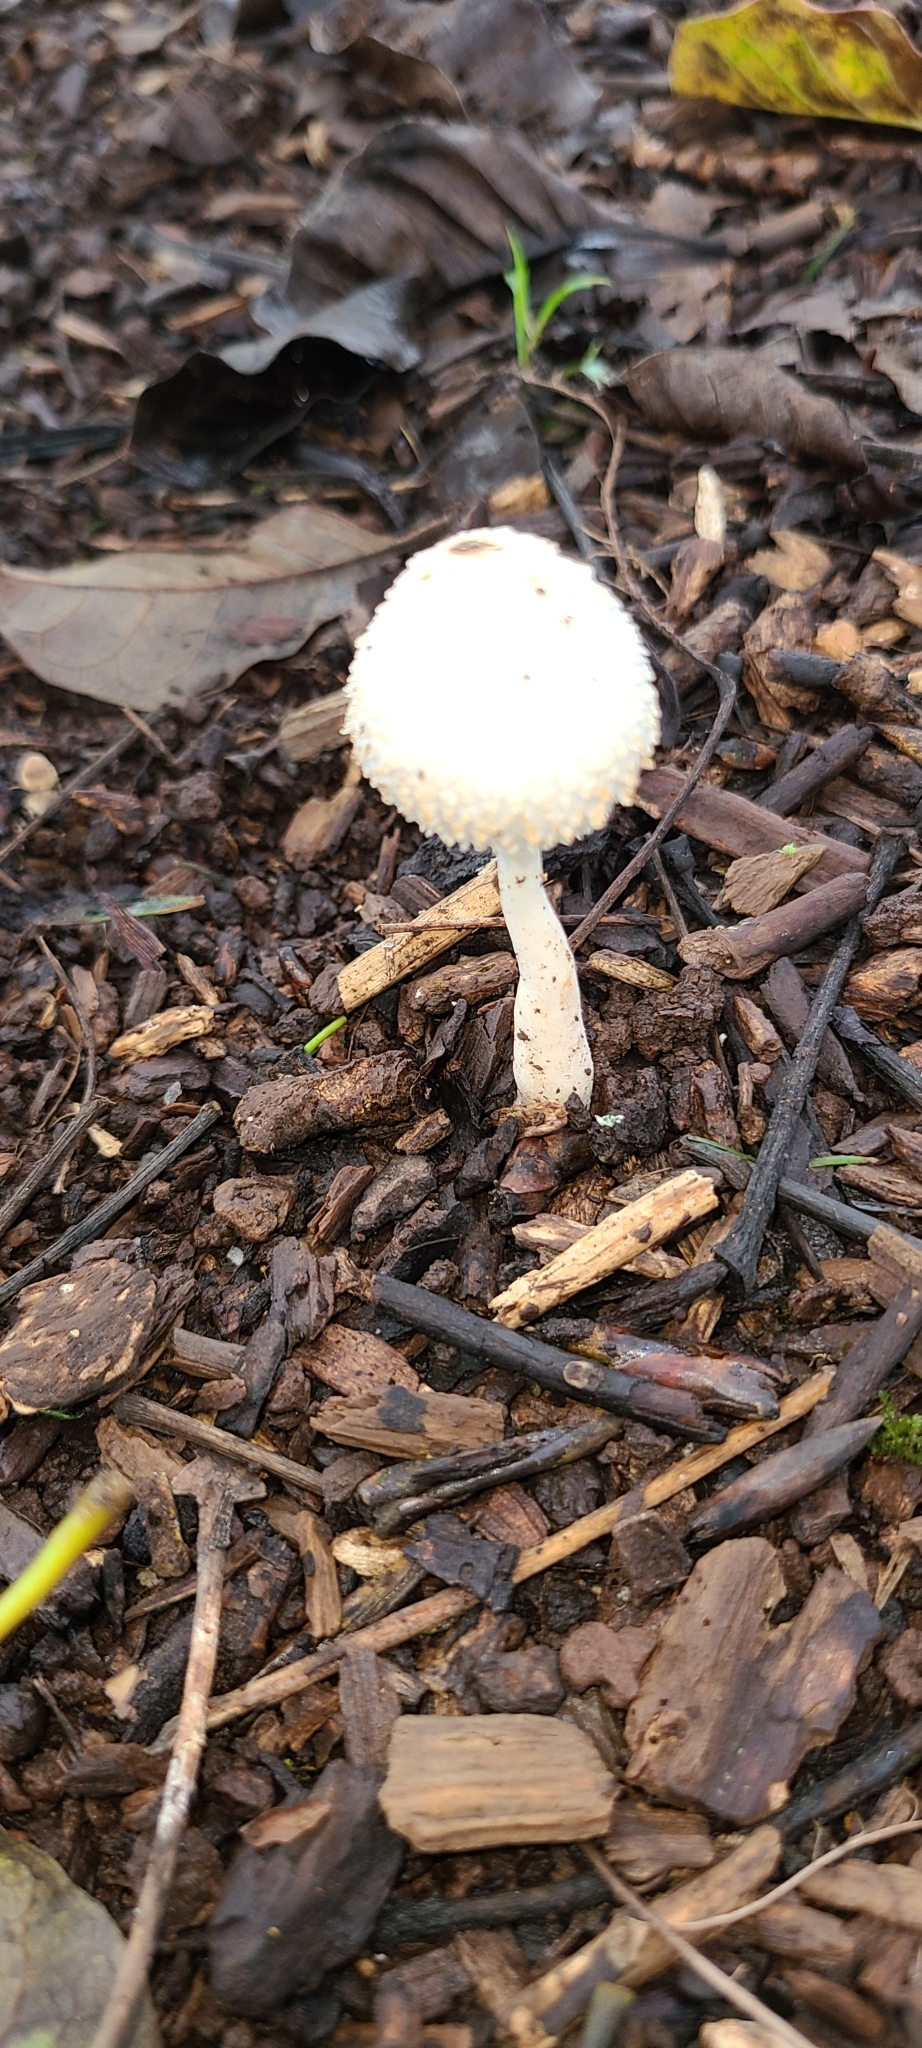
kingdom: Fungi
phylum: Basidiomycota
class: Agaricomycetes
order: Agaricales
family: Agaricaceae
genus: Leucocoprinus
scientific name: Leucocoprinus cepistipes
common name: Onion-stalk parasol
